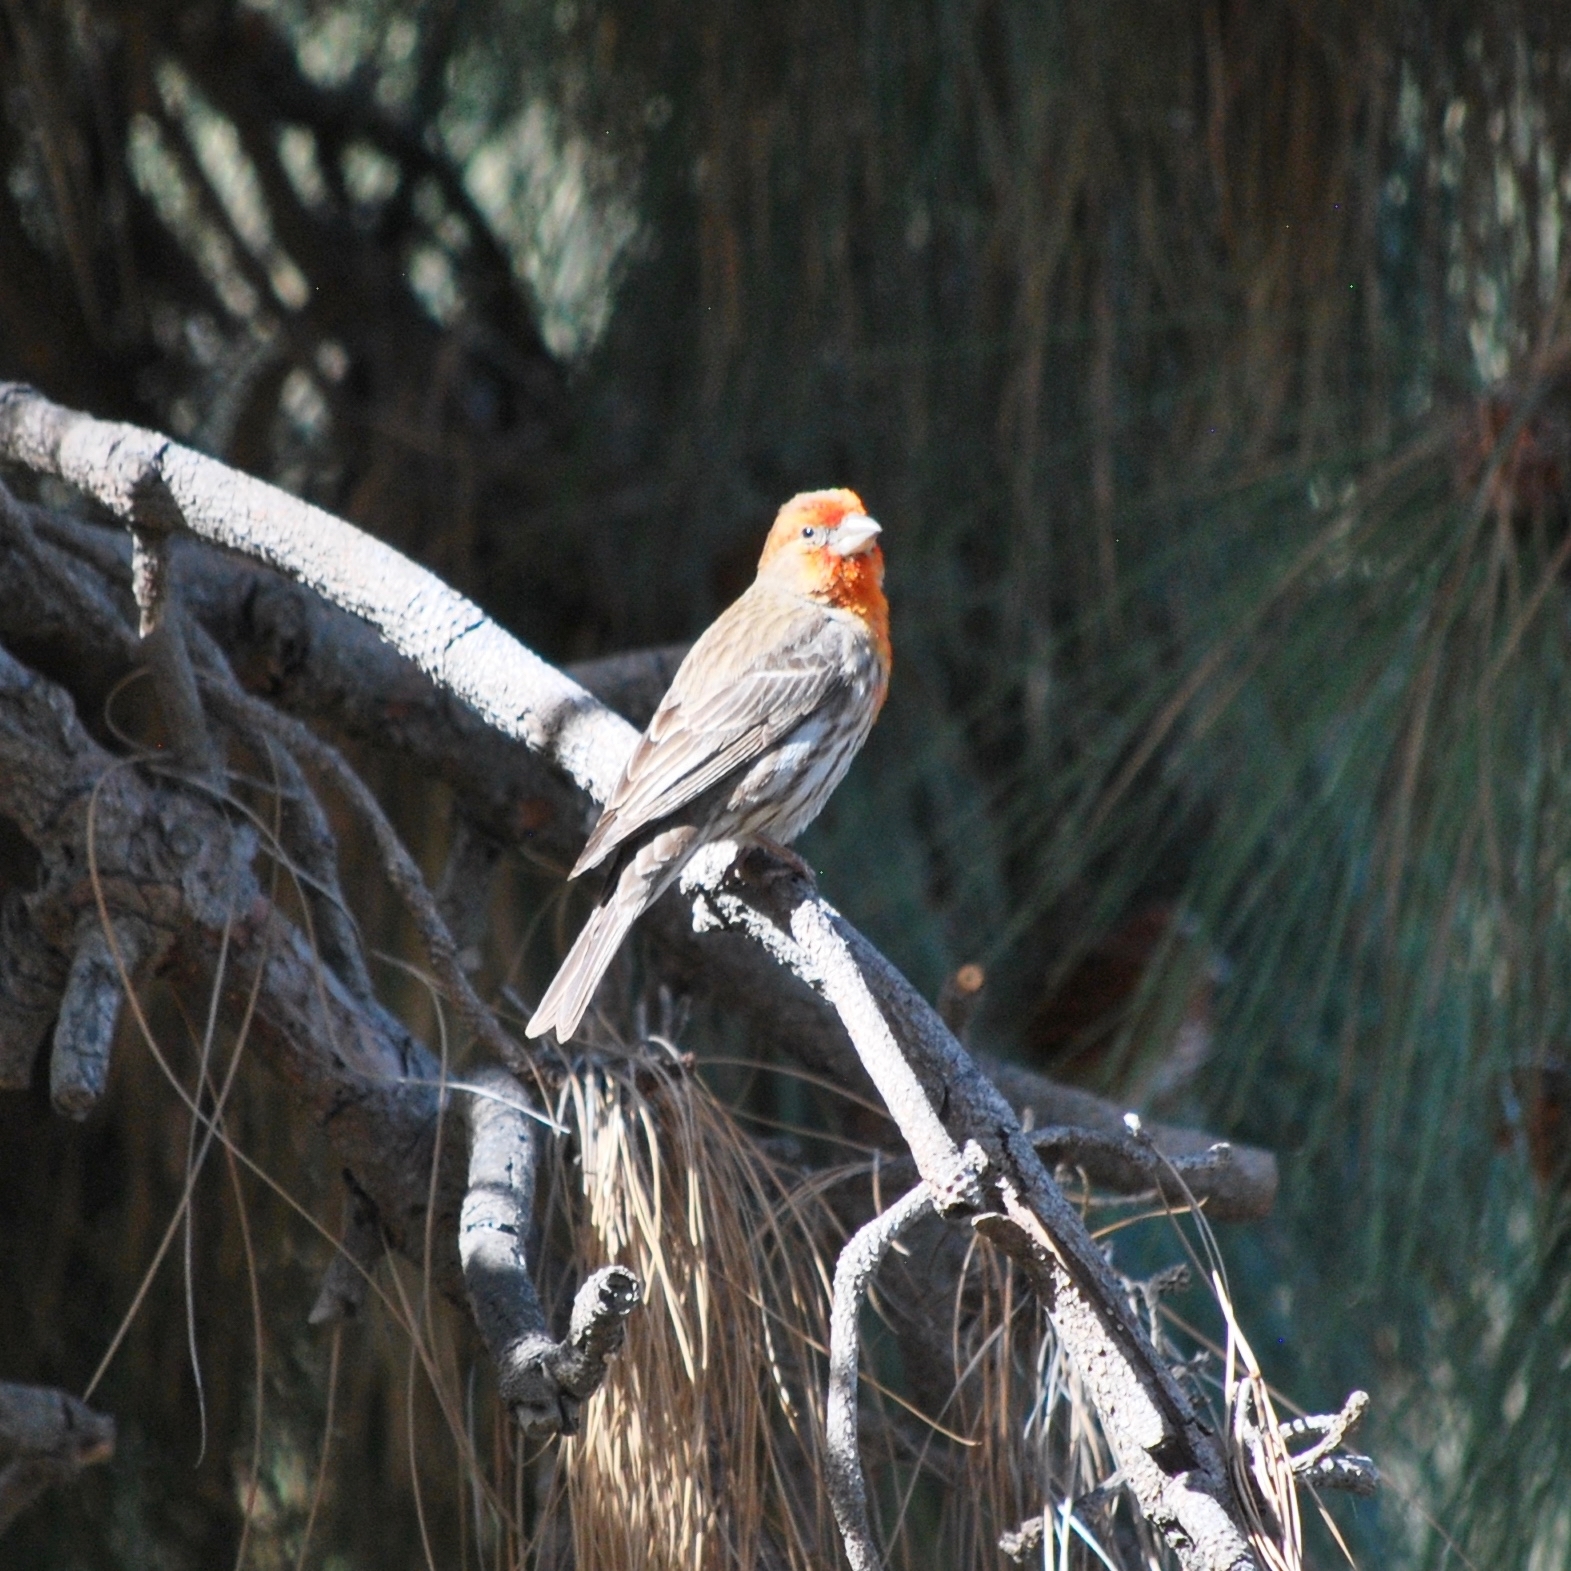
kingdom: Animalia
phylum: Chordata
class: Aves
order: Passeriformes
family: Fringillidae
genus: Haemorhous
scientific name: Haemorhous mexicanus
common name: House finch
